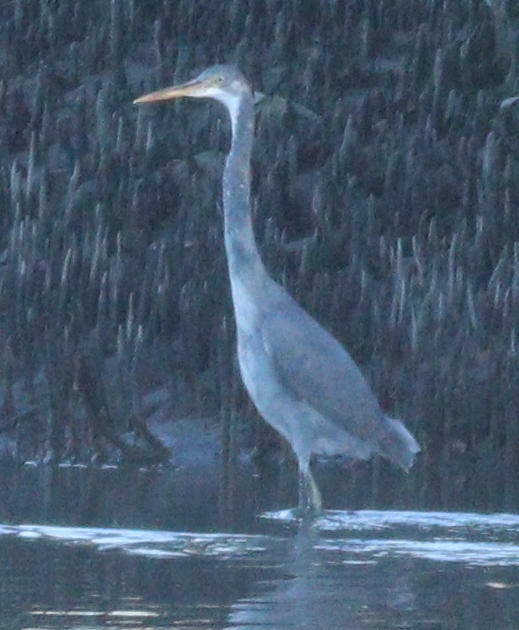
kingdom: Animalia
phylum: Chordata
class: Aves
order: Pelecaniformes
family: Ardeidae
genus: Egretta
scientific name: Egretta gularis
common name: Western reef-heron
